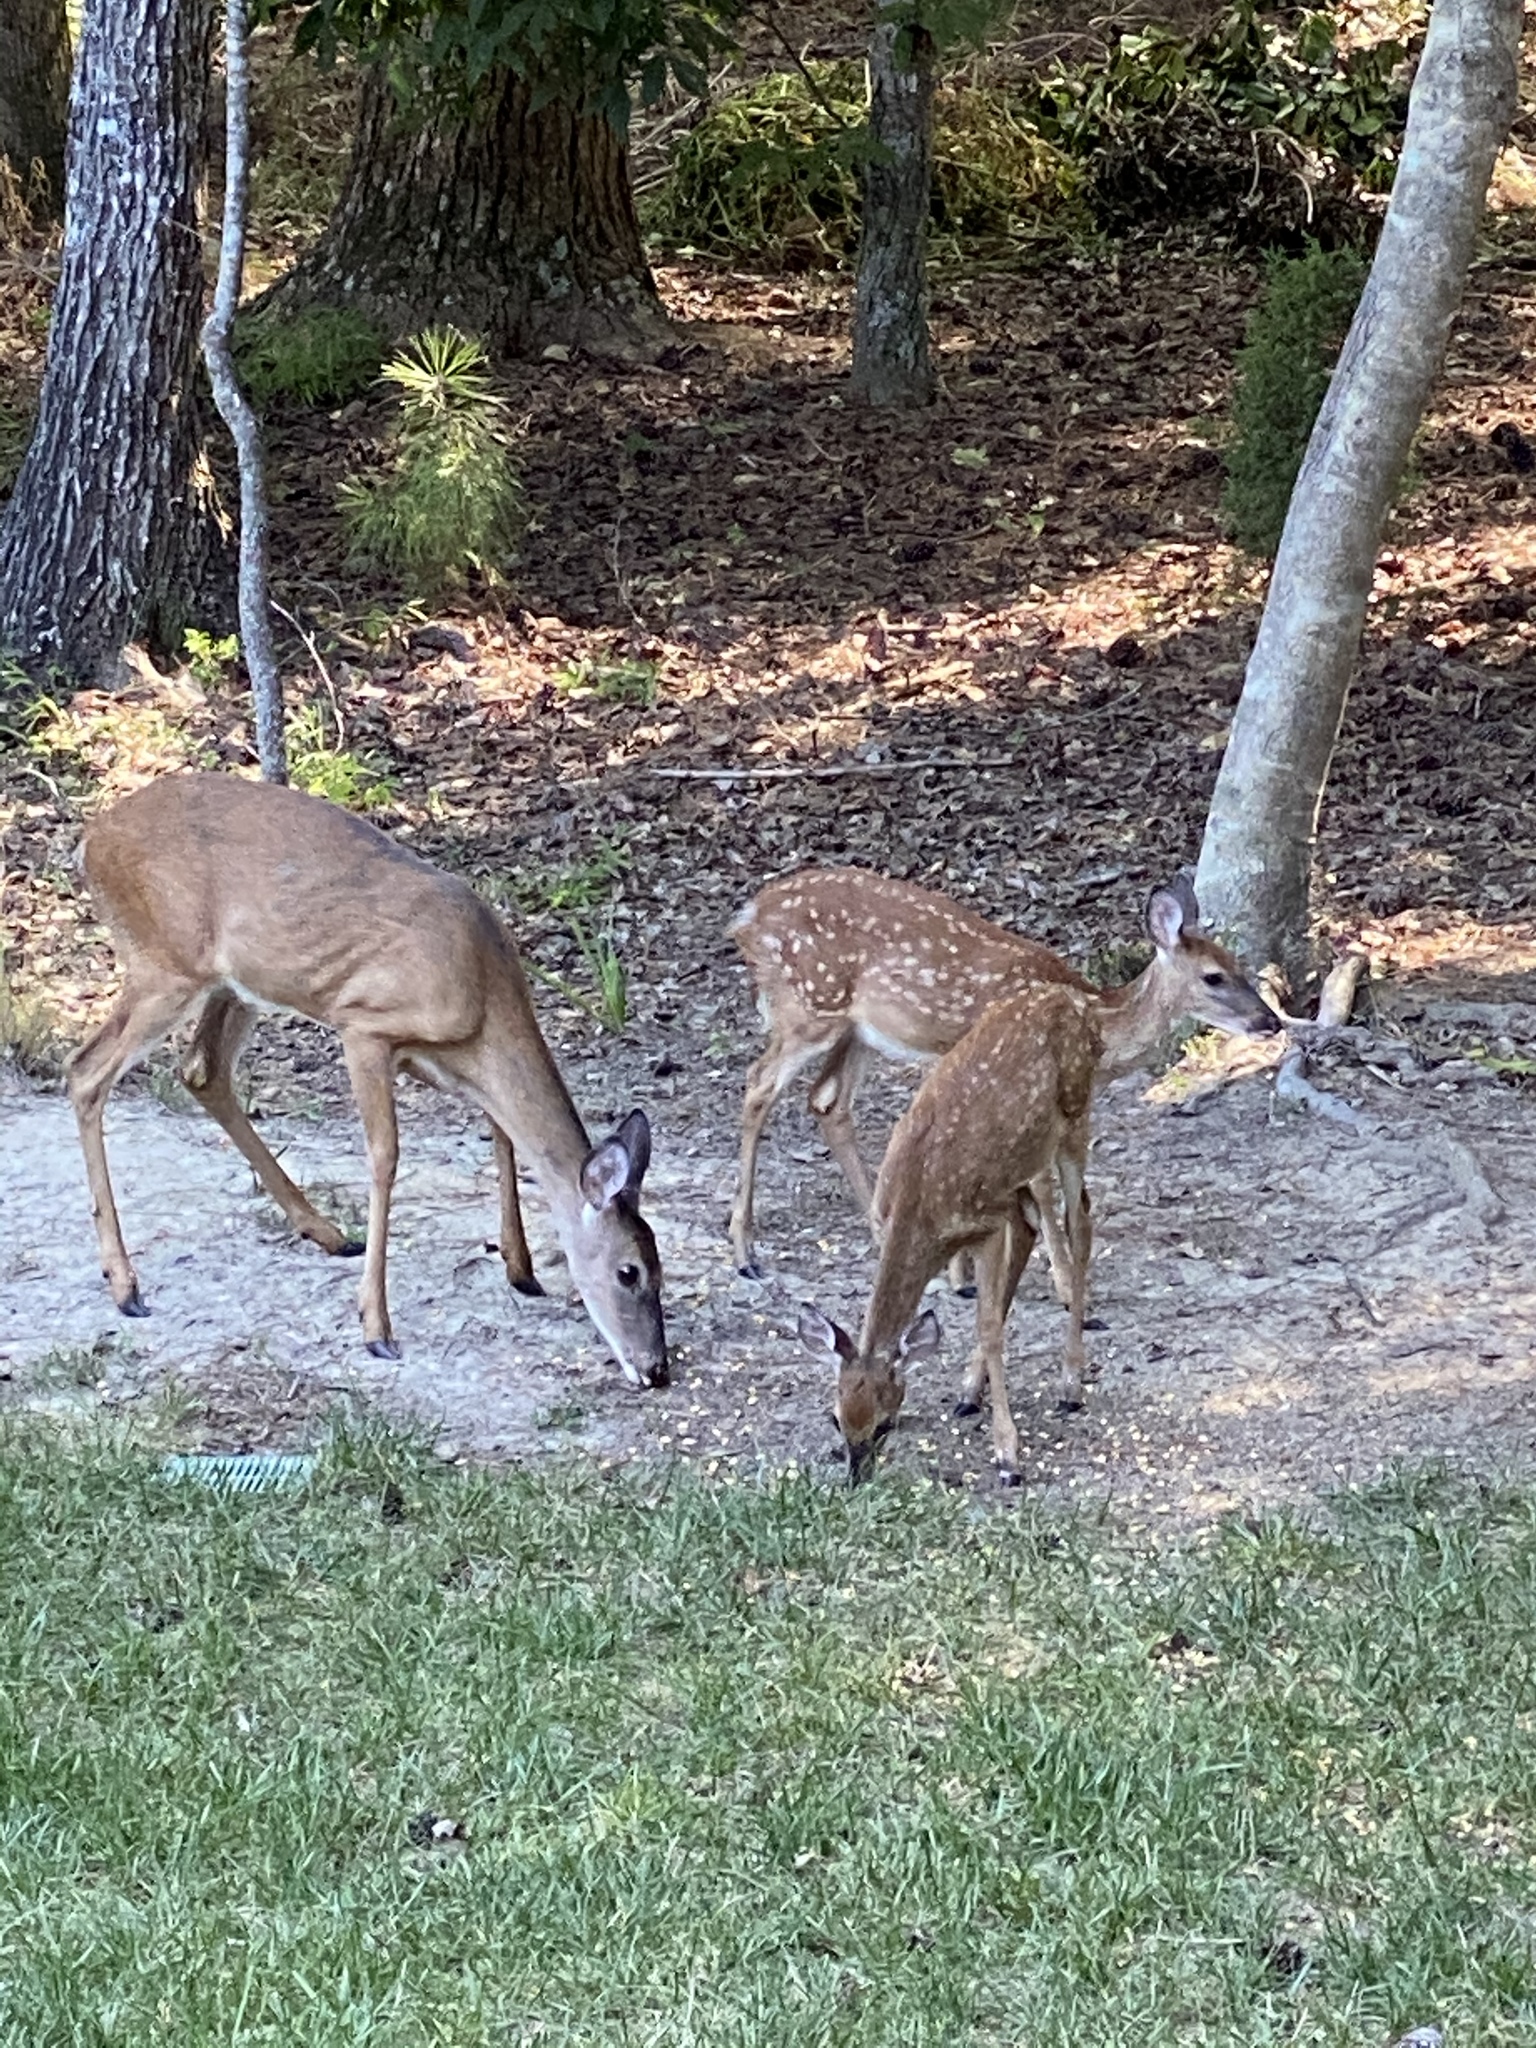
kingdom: Animalia
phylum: Chordata
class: Mammalia
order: Artiodactyla
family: Cervidae
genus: Odocoileus
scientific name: Odocoileus virginianus
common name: White-tailed deer
